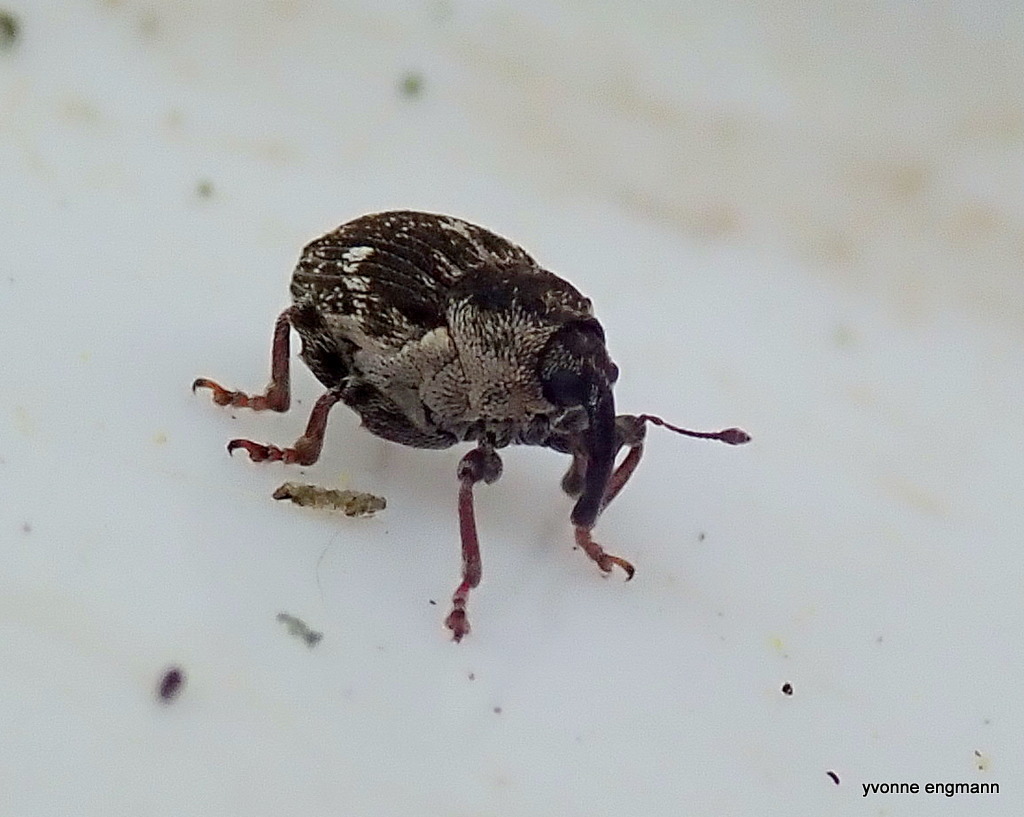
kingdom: Animalia
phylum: Arthropoda
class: Insecta
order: Coleoptera
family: Curculionidae
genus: Nedyus
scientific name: Nedyus quadrimaculatus
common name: Small nettle weevil
